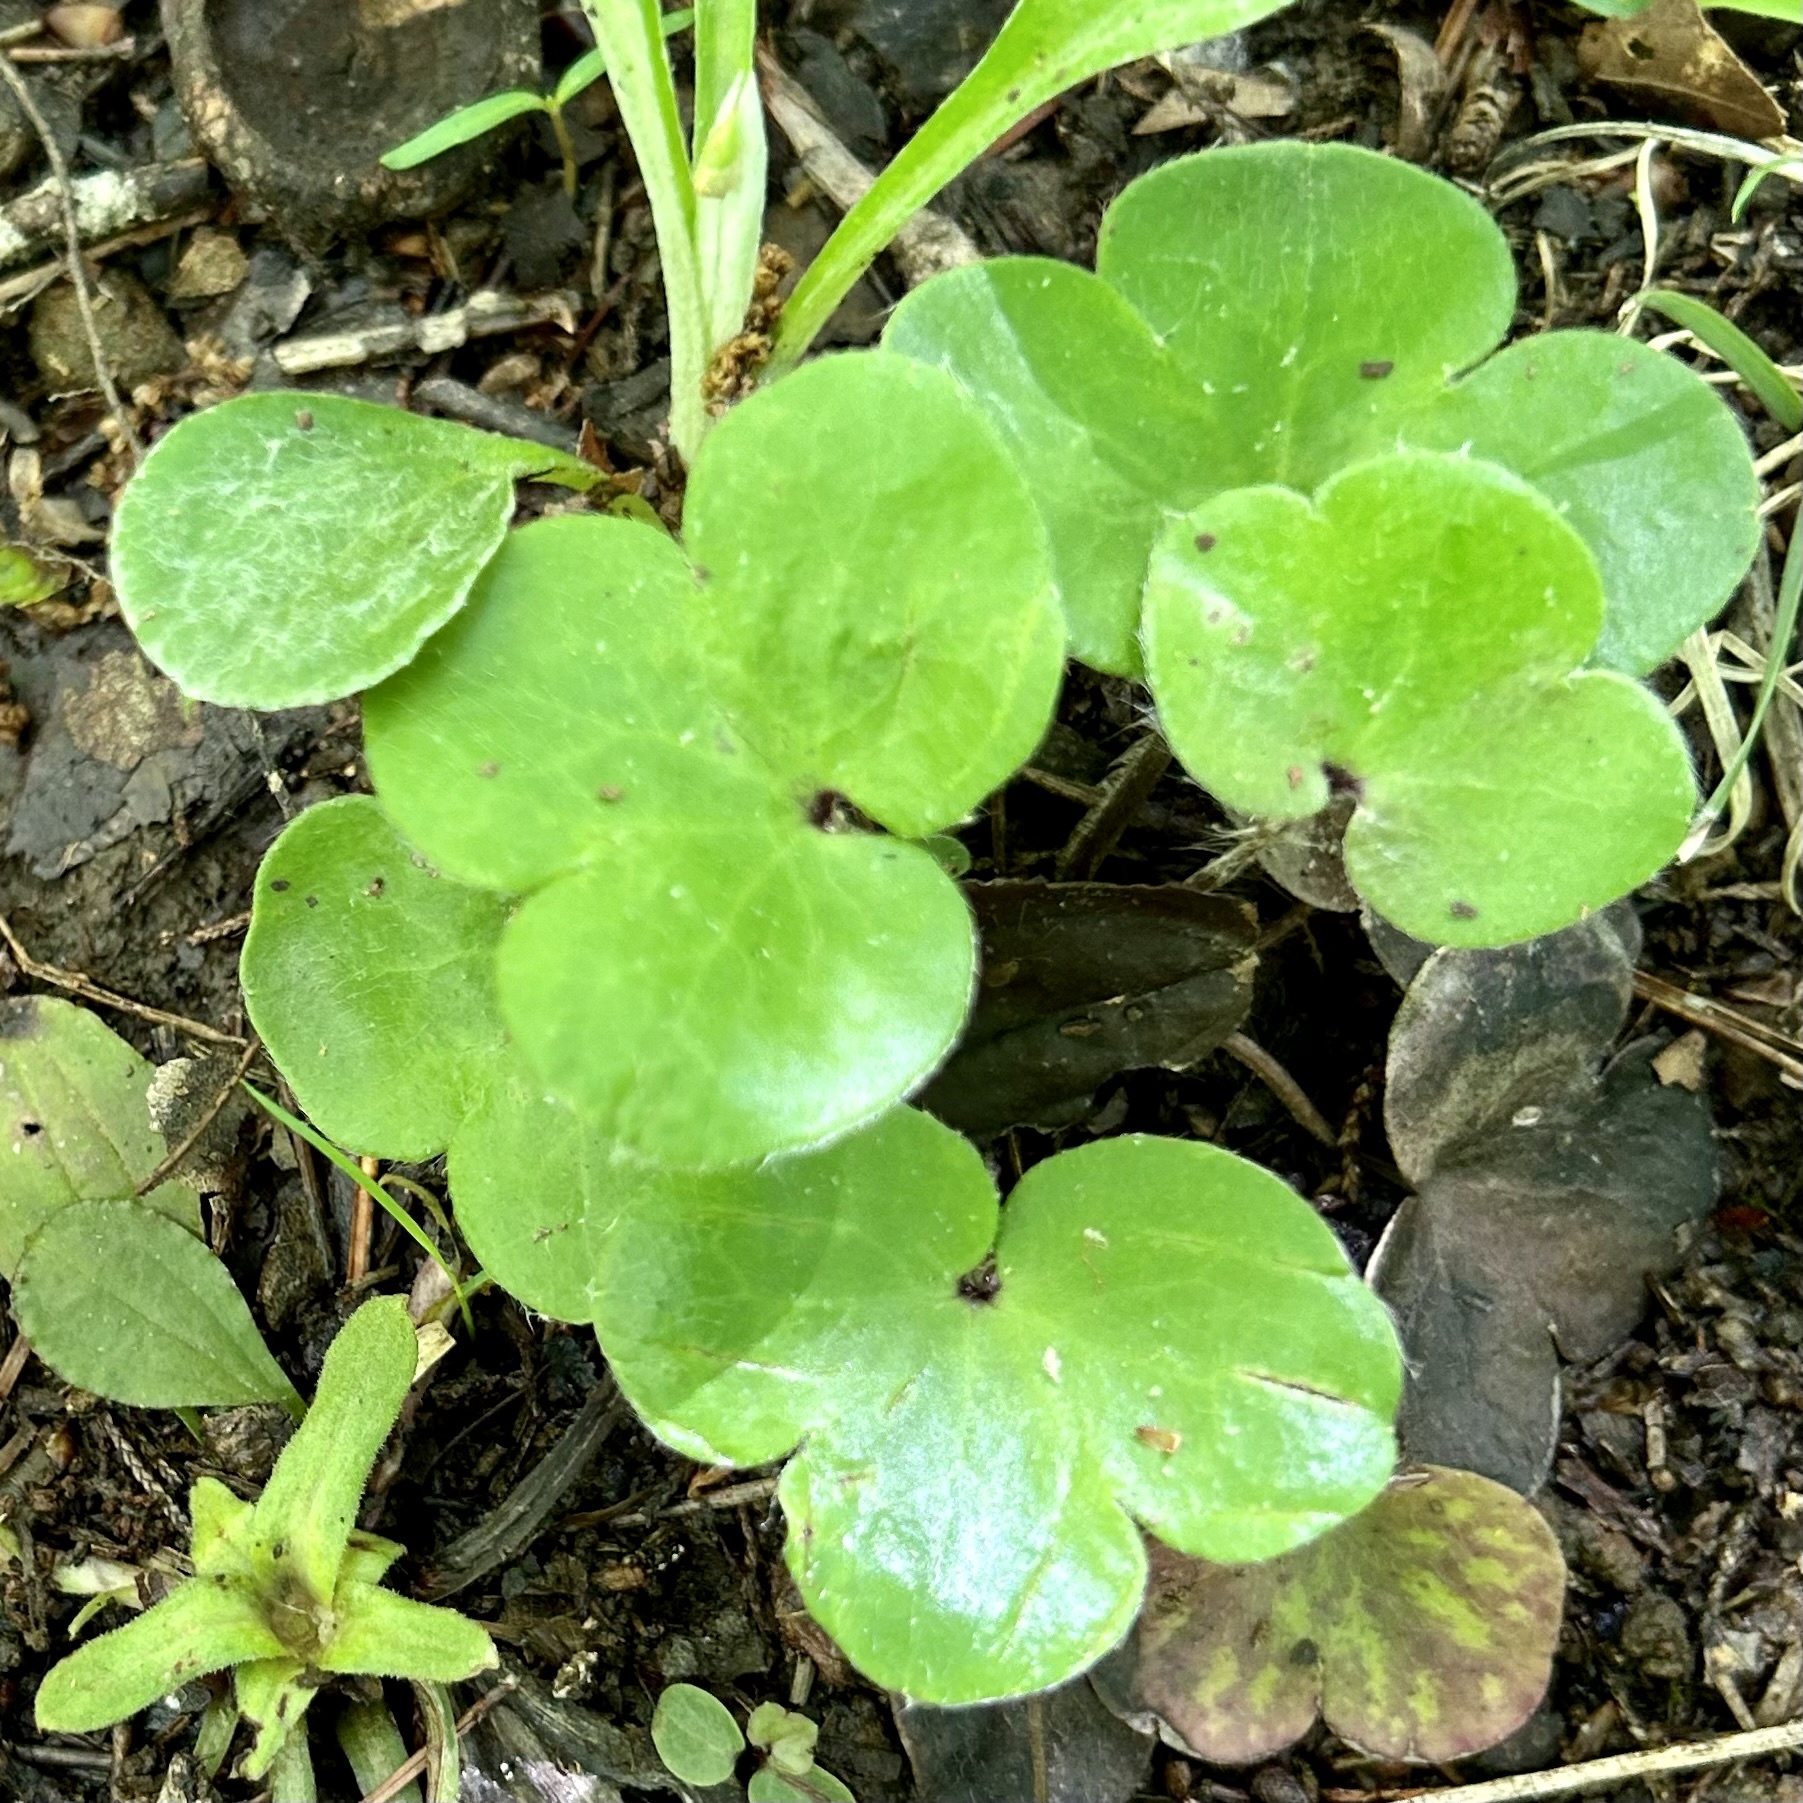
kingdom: Plantae
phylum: Tracheophyta
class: Magnoliopsida
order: Ranunculales
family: Ranunculaceae
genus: Hepatica
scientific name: Hepatica americana
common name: American hepatica
